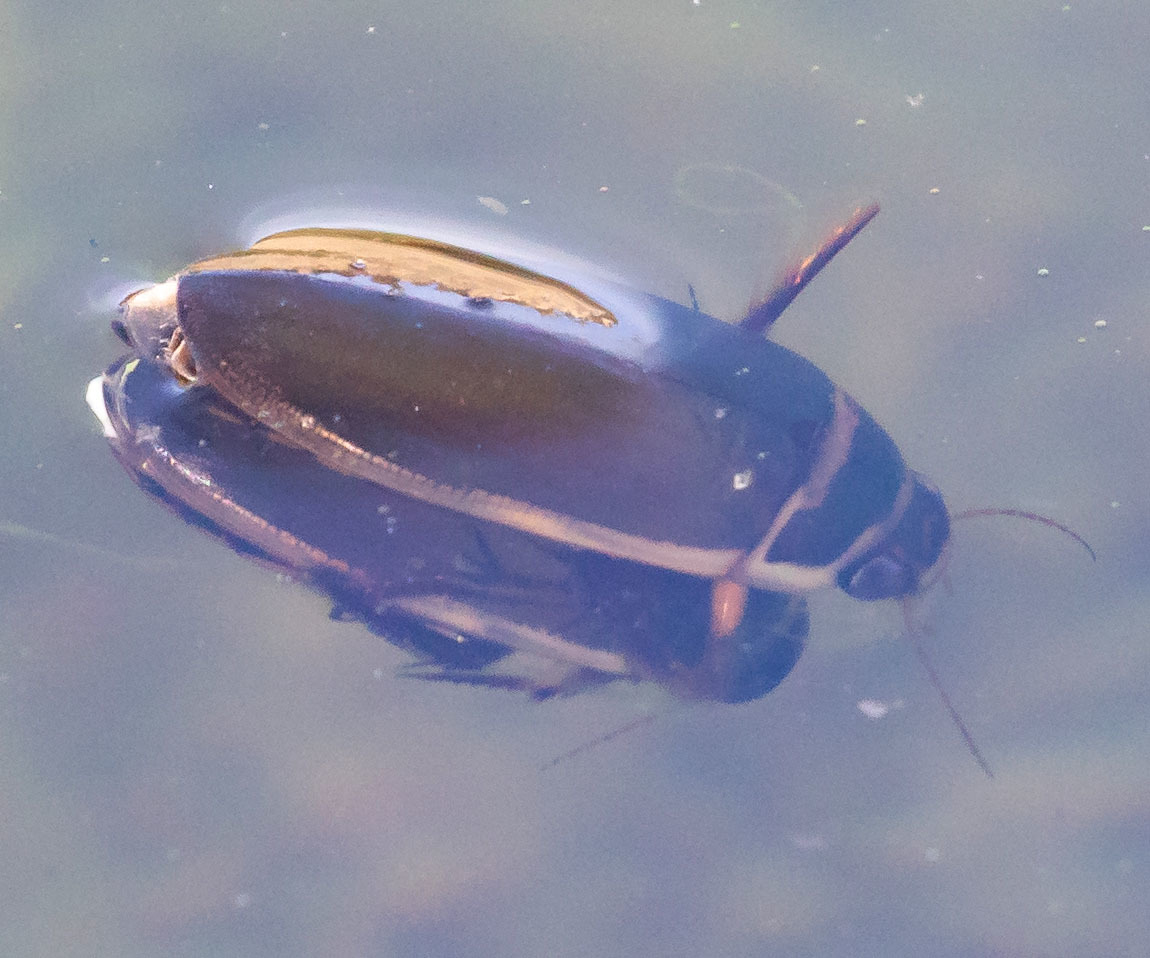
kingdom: Animalia
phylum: Arthropoda
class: Insecta
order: Coleoptera
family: Dytiscidae
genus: Dytiscus
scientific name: Dytiscus marginicollis
